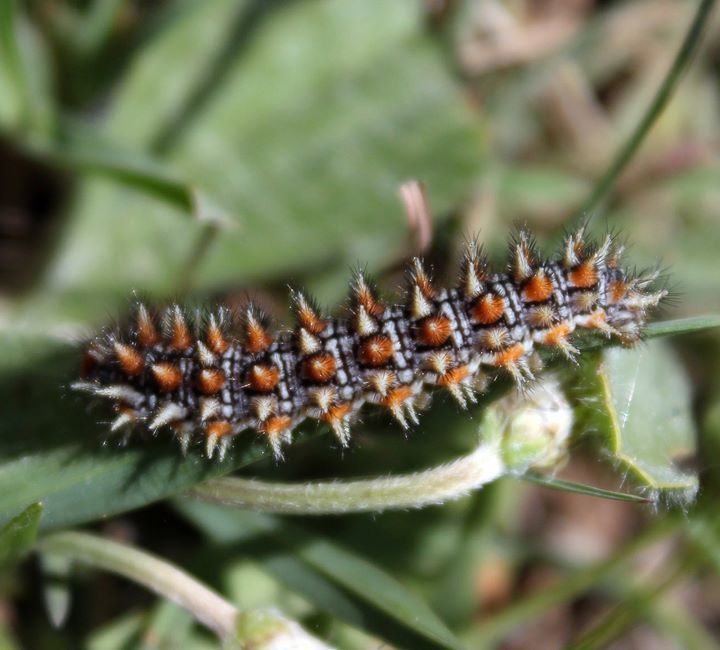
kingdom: Animalia
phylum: Arthropoda
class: Insecta
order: Lepidoptera
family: Nymphalidae
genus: Melitaea
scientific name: Melitaea didyma
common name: Spotted fritillary
